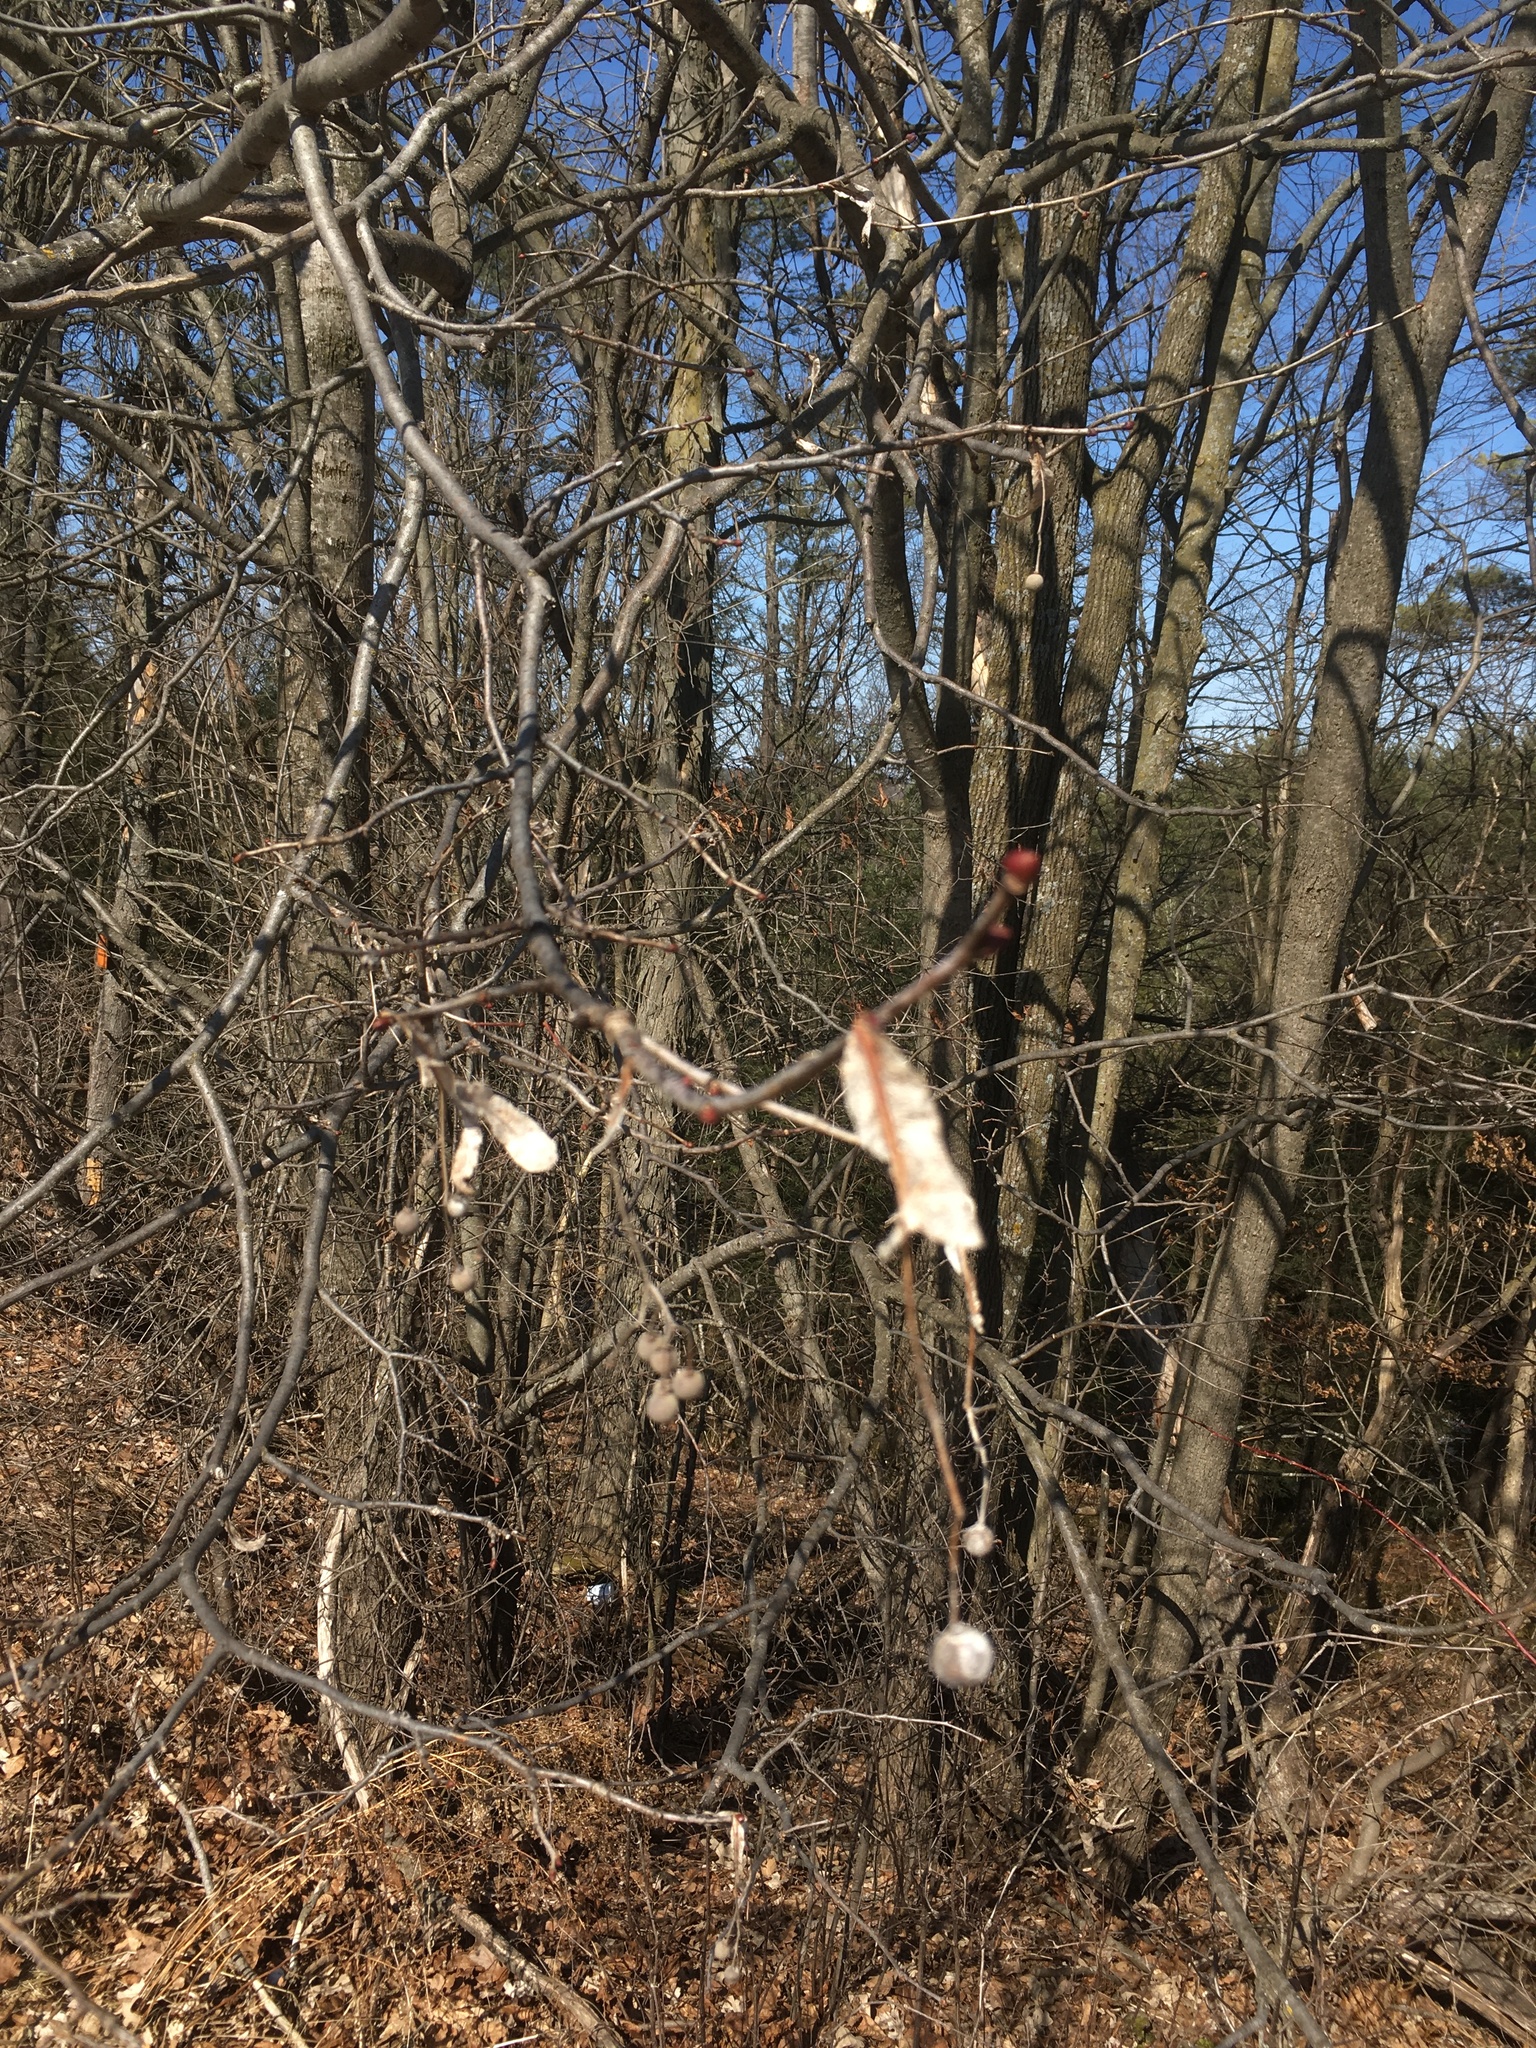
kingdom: Plantae
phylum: Tracheophyta
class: Magnoliopsida
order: Malvales
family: Malvaceae
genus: Tilia
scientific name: Tilia americana
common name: Basswood
